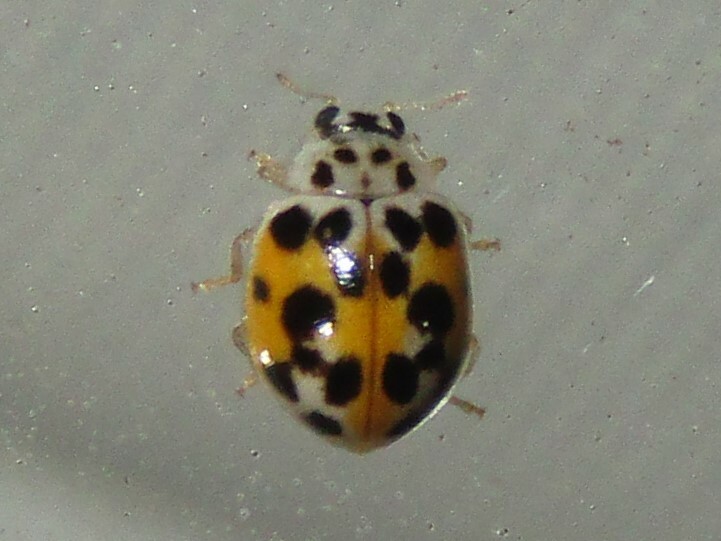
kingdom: Animalia
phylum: Arthropoda
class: Insecta
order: Coleoptera
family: Coccinellidae
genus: Psyllobora
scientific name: Psyllobora vigintimaculata
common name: Ladybird beetle
